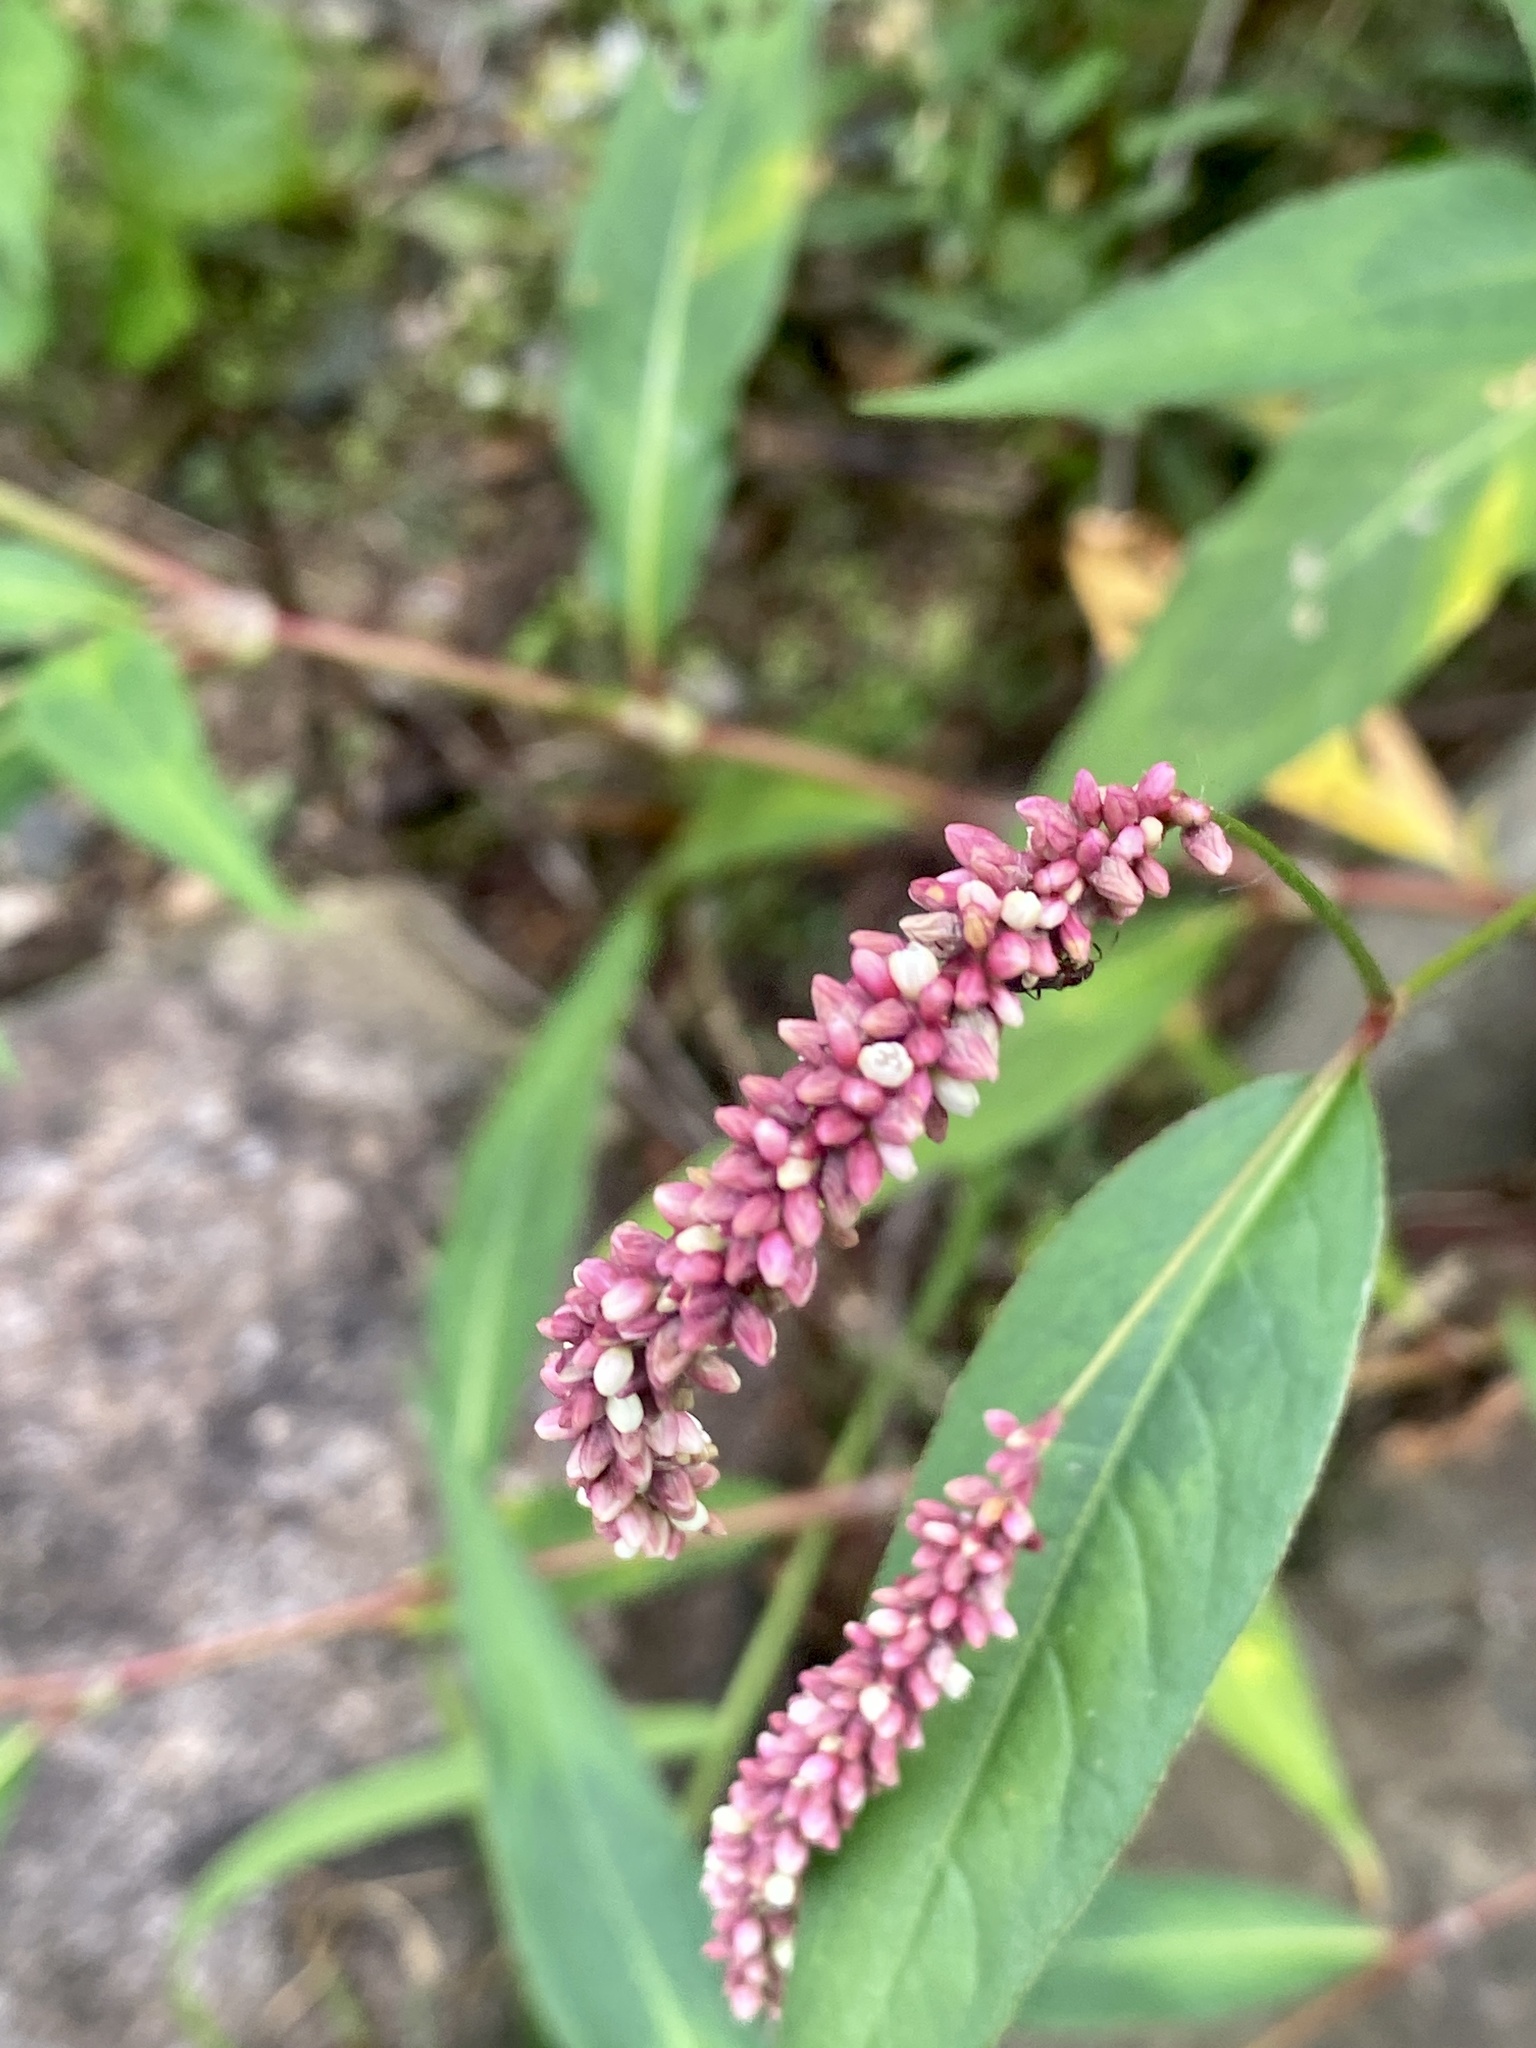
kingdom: Plantae
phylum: Tracheophyta
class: Magnoliopsida
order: Caryophyllales
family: Polygonaceae
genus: Persicaria
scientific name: Persicaria extremiorientalis
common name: Far-eastern smartweed
